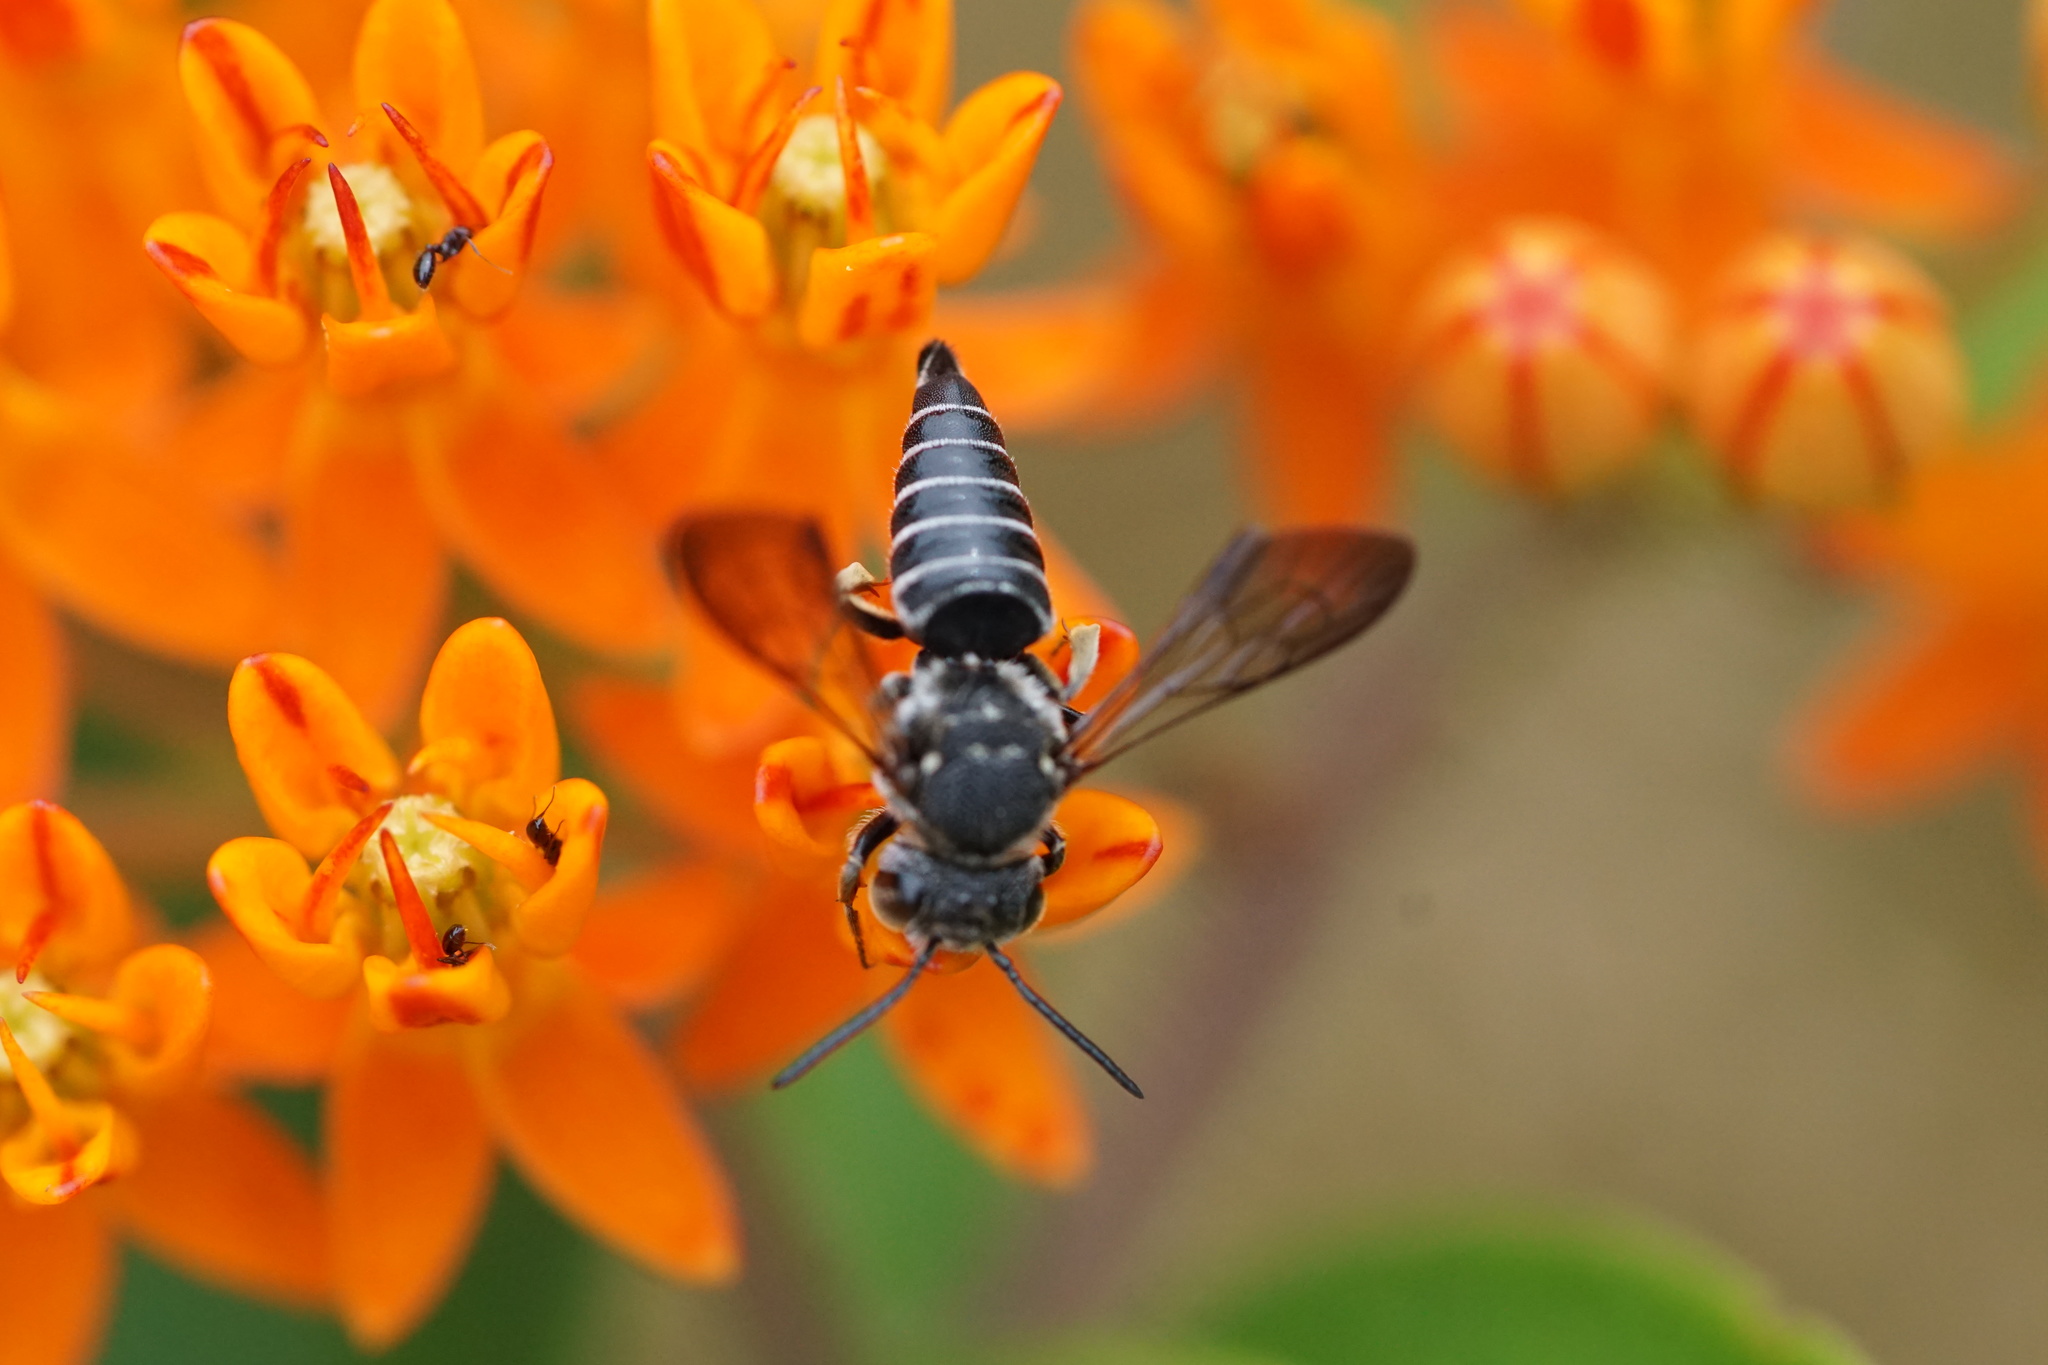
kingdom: Animalia
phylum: Arthropoda
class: Insecta
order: Hymenoptera
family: Megachilidae
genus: Coelioxys
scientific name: Coelioxys modestus
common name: Modest sharptail
